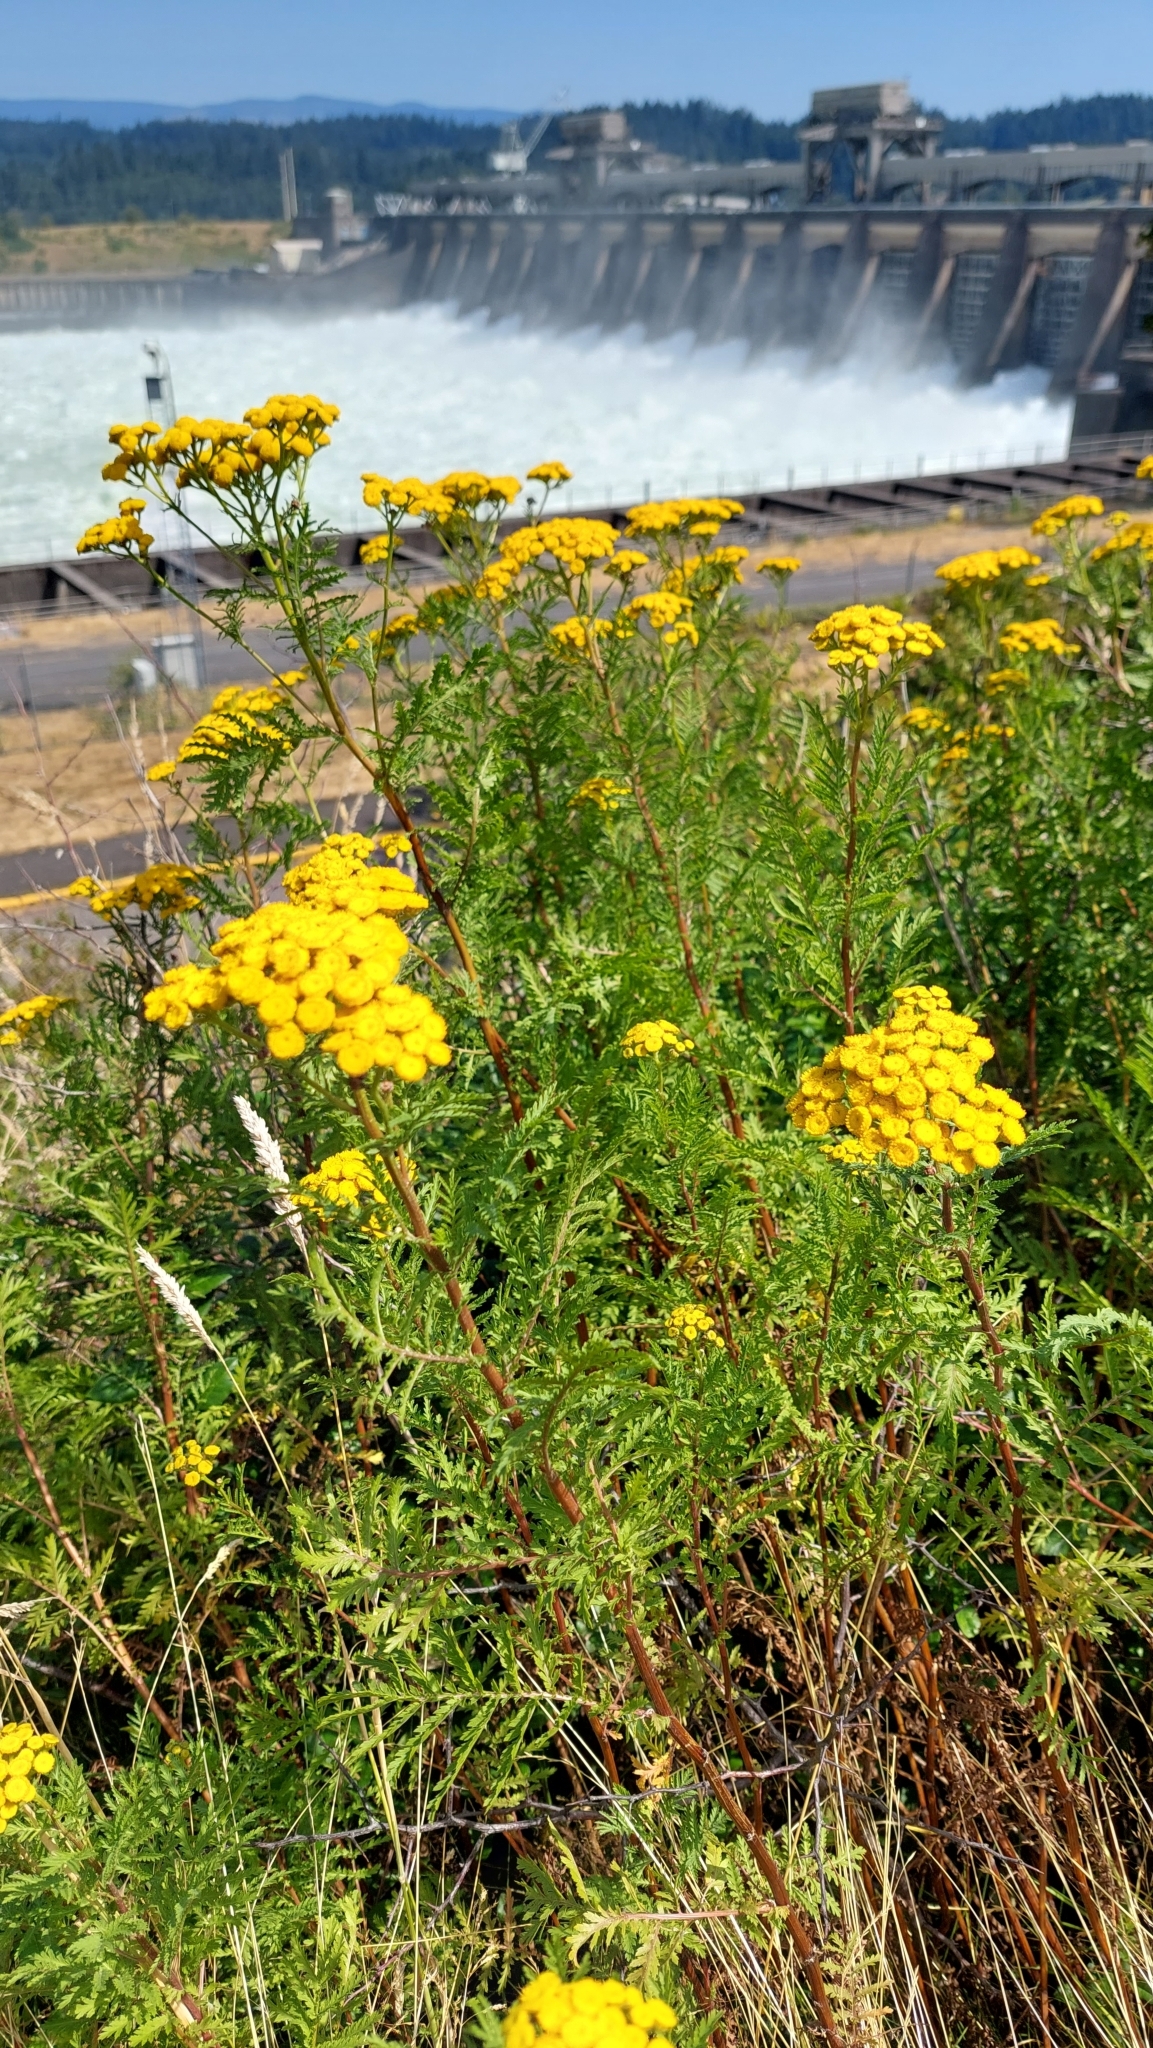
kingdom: Plantae
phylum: Tracheophyta
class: Magnoliopsida
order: Asterales
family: Asteraceae
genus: Tanacetum
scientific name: Tanacetum vulgare
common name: Common tansy
